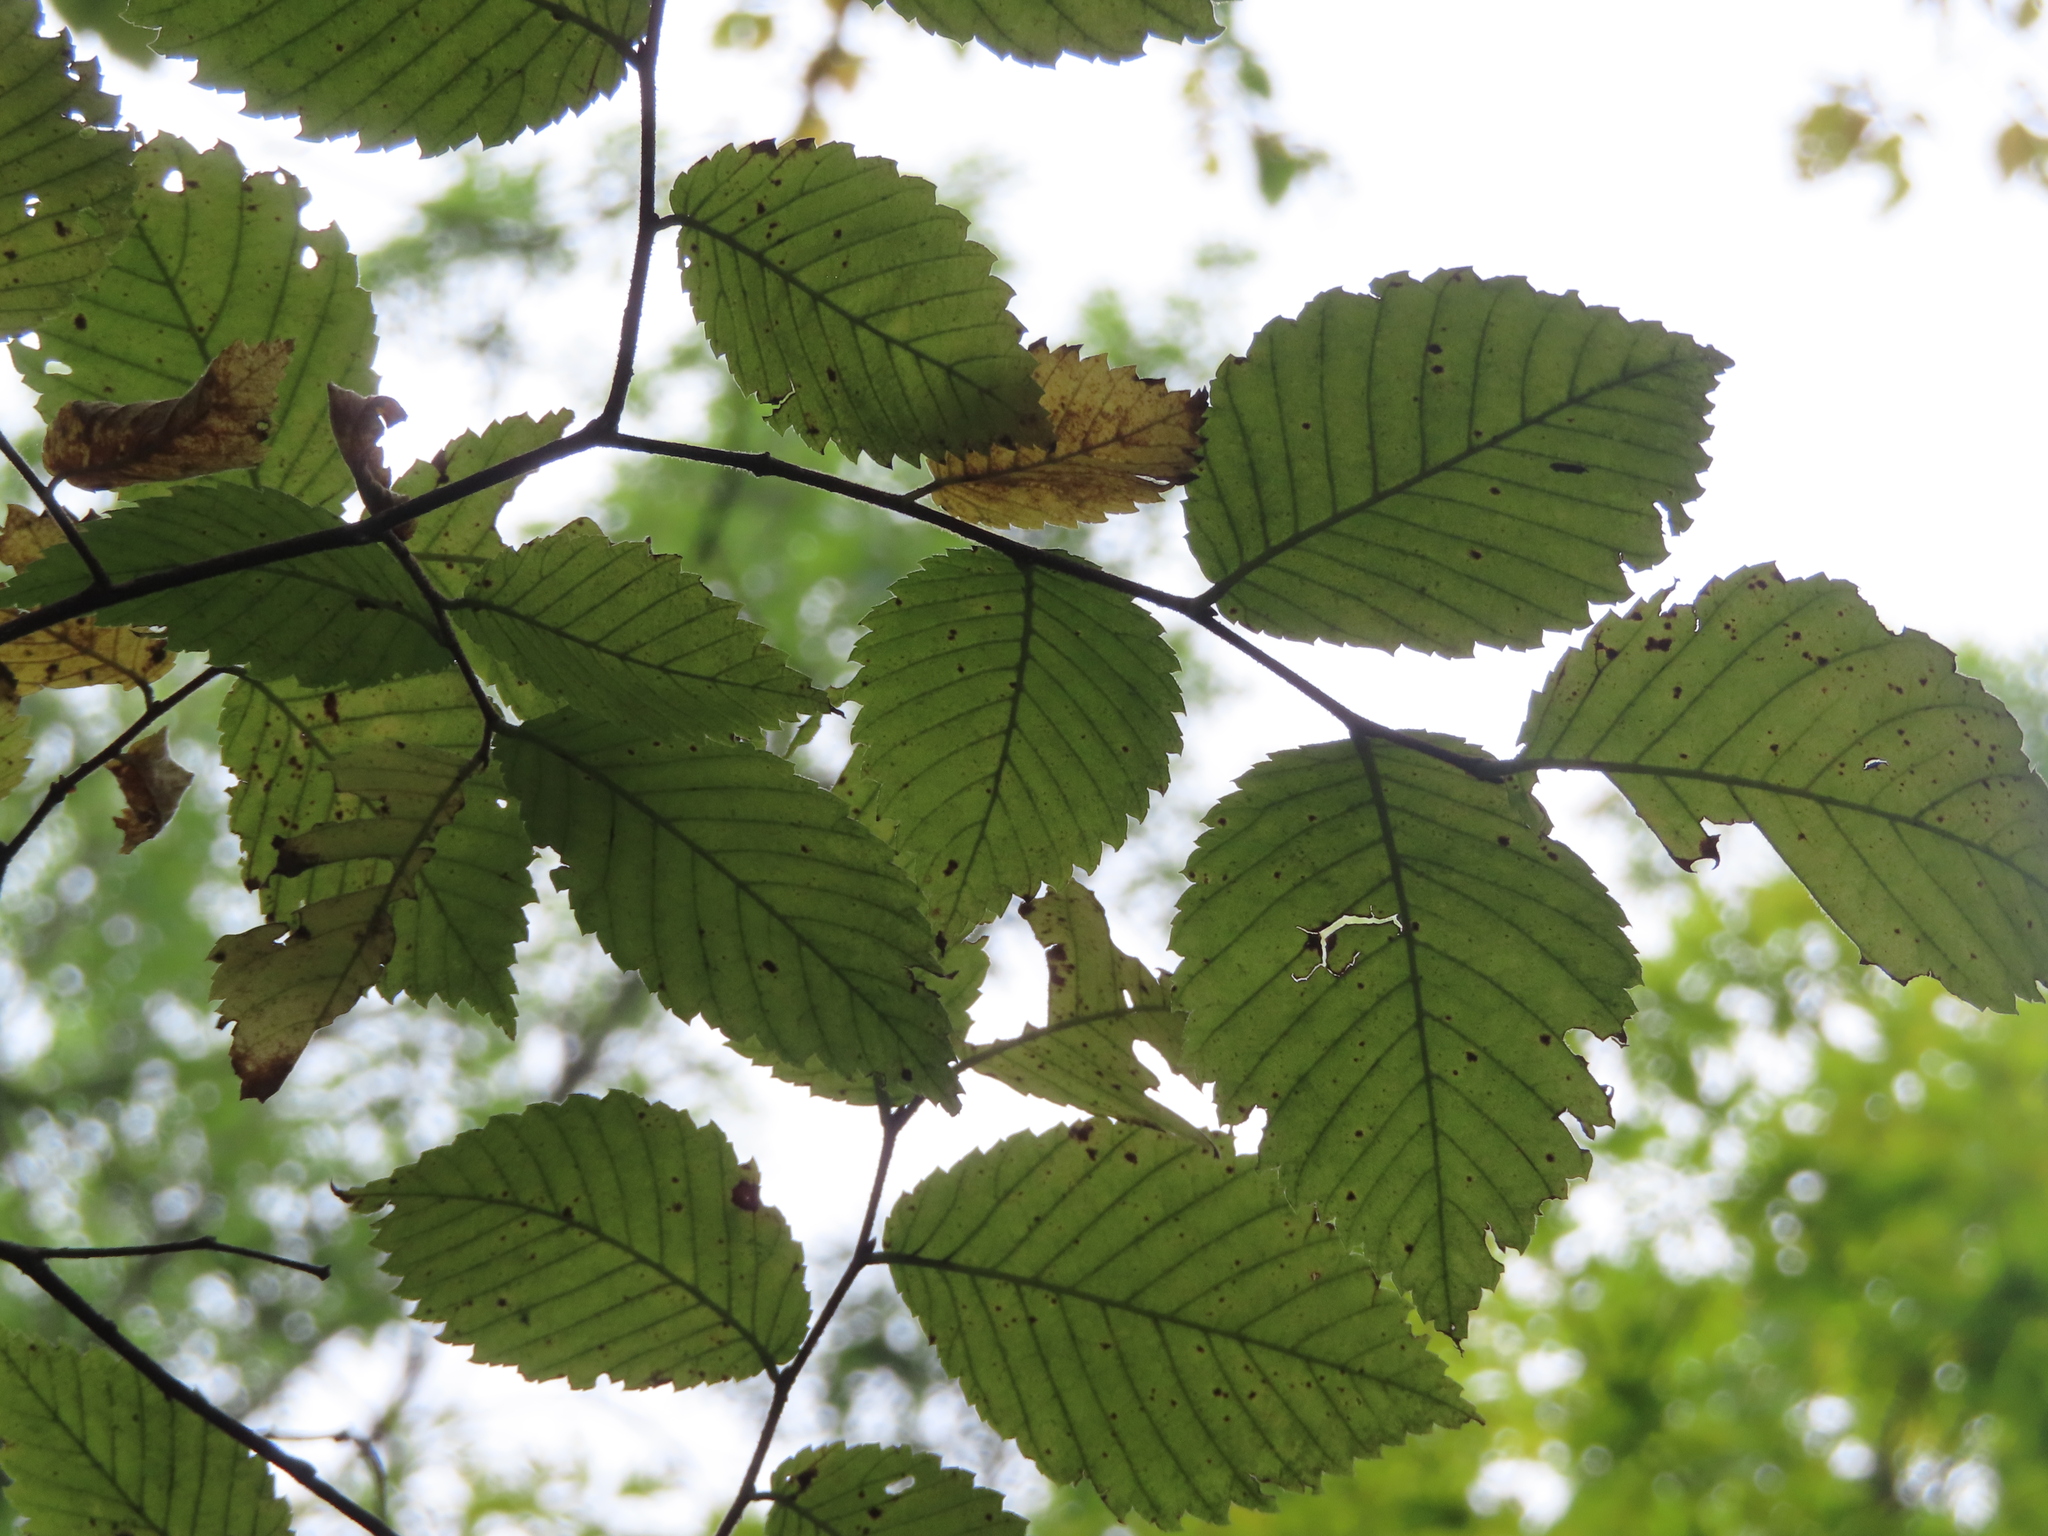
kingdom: Plantae
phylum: Tracheophyta
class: Magnoliopsida
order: Rosales
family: Ulmaceae
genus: Ulmus
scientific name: Ulmus americana
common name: American elm
